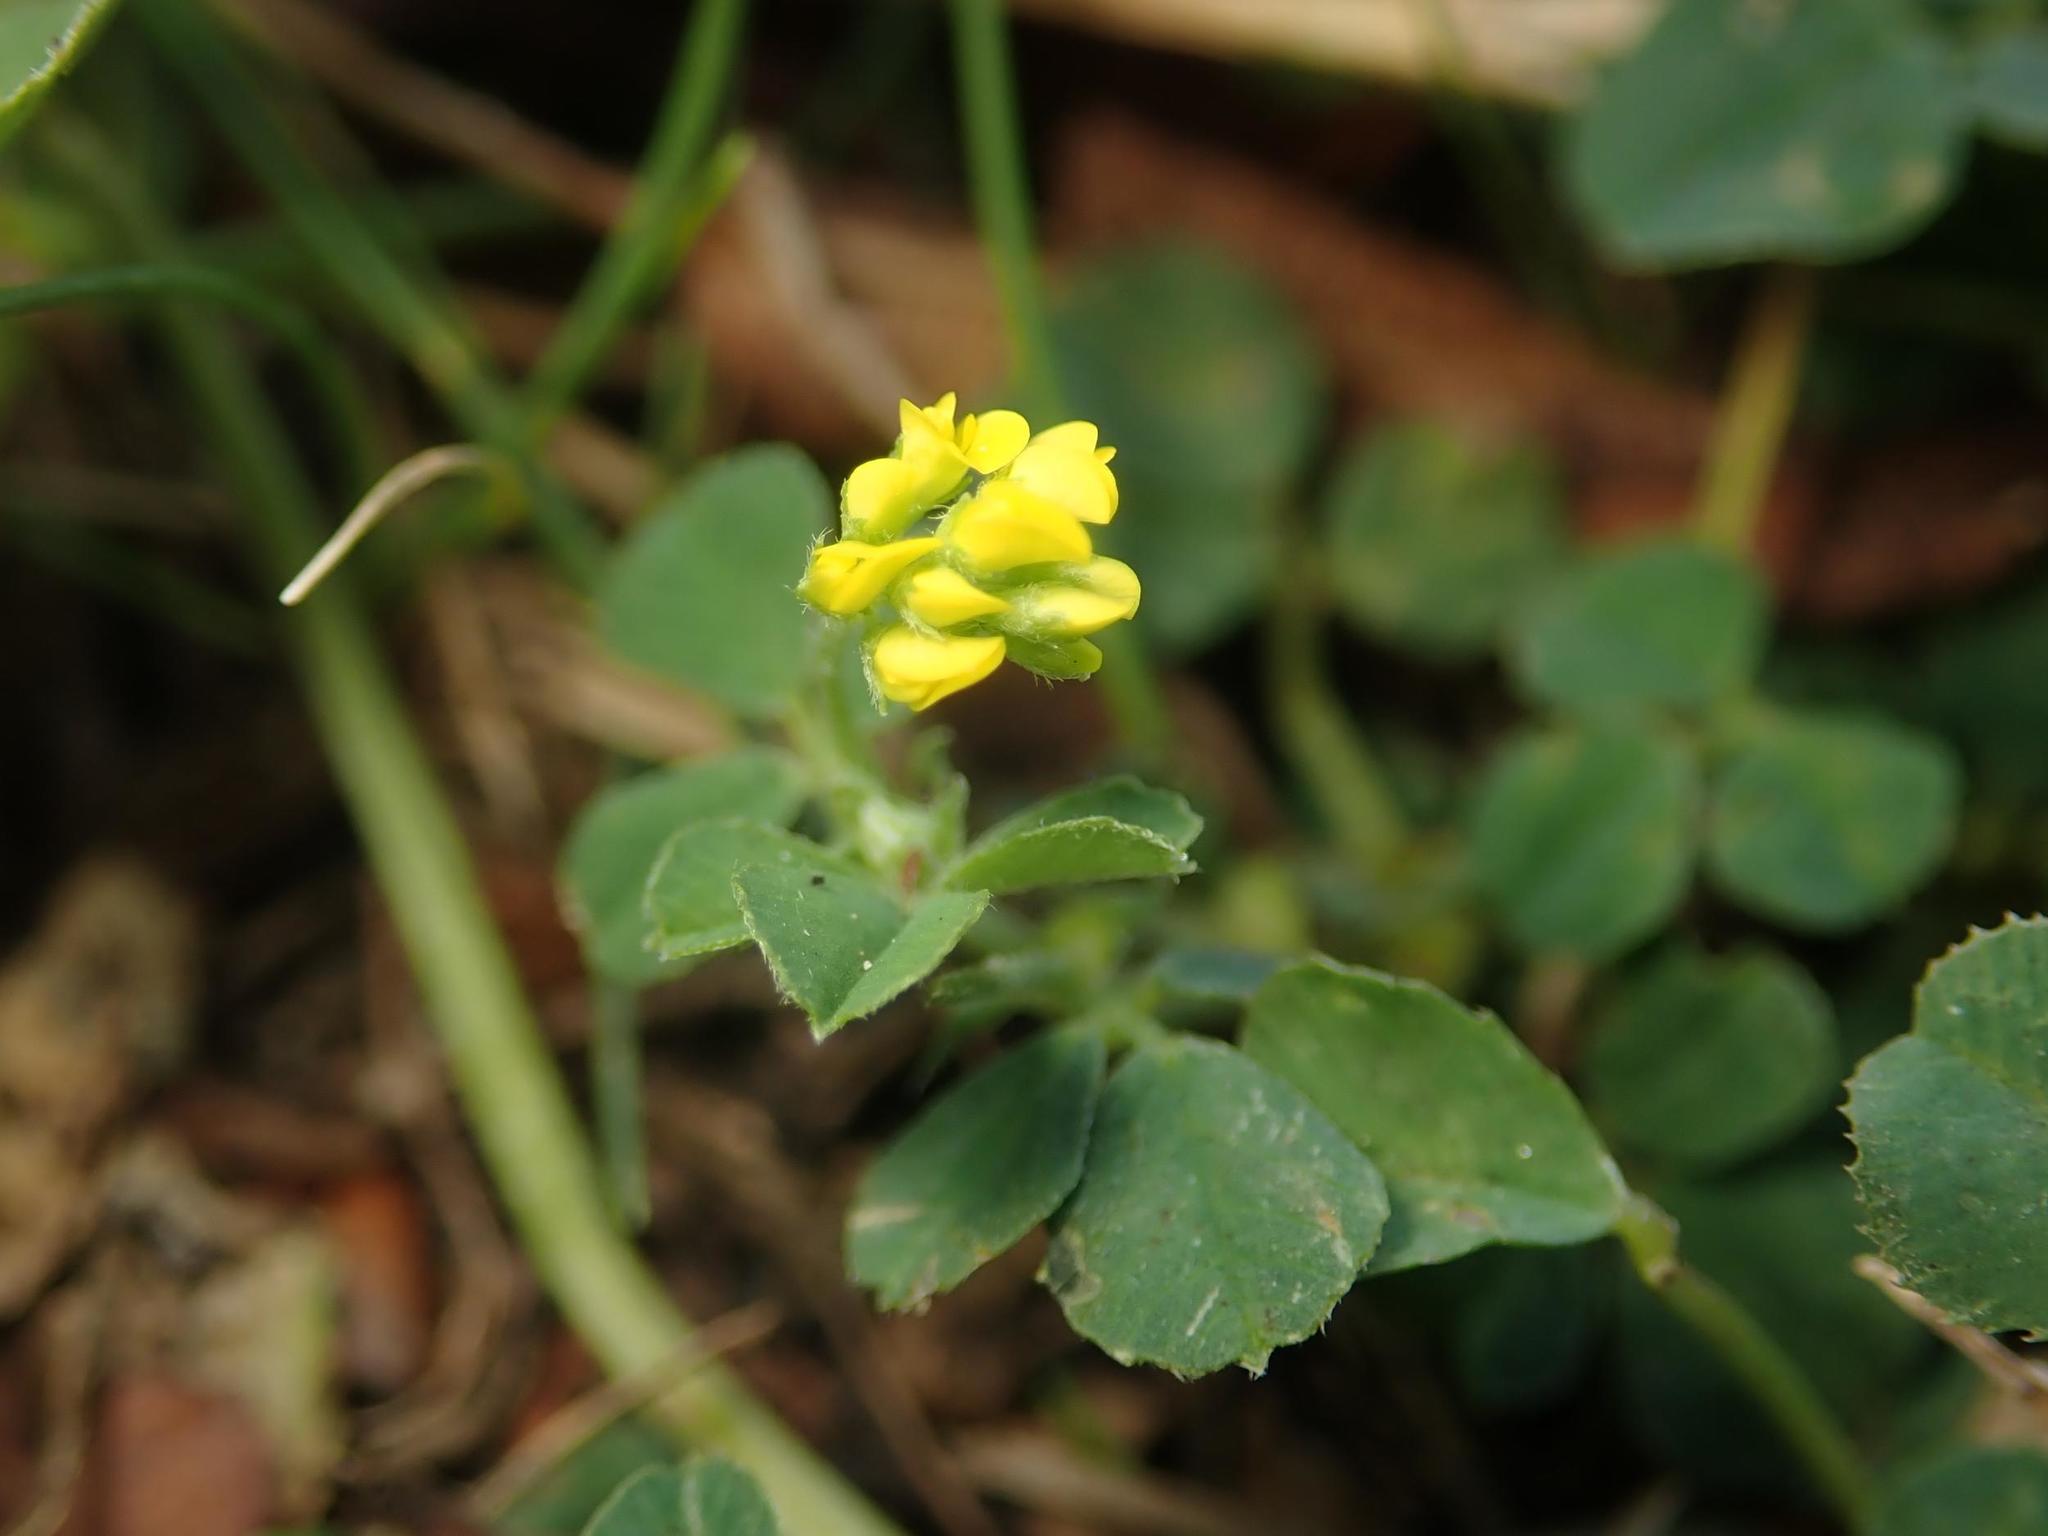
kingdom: Plantae
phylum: Tracheophyta
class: Magnoliopsida
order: Fabales
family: Fabaceae
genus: Medicago
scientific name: Medicago lupulina
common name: Black medick
